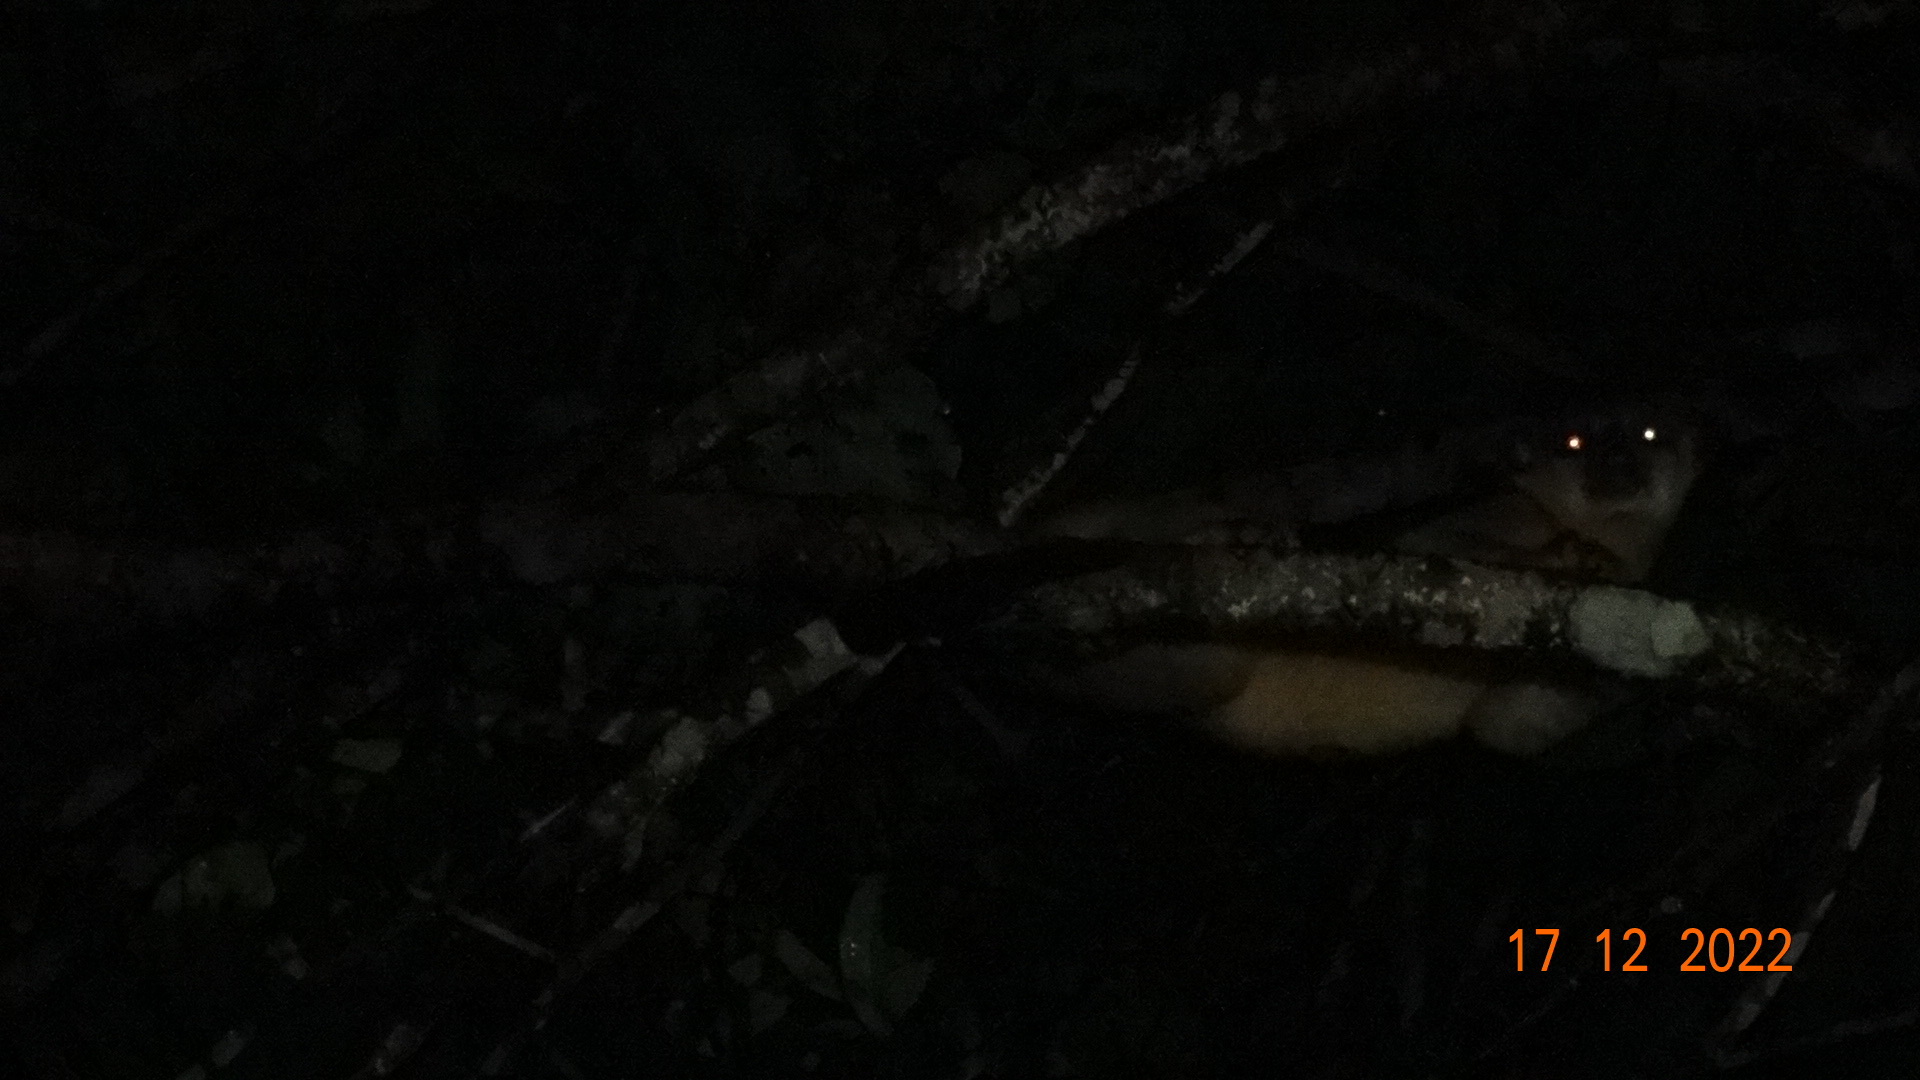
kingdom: Animalia
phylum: Chordata
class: Mammalia
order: Carnivora
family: Procyonidae
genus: Potos
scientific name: Potos flavus
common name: Kinkajou
